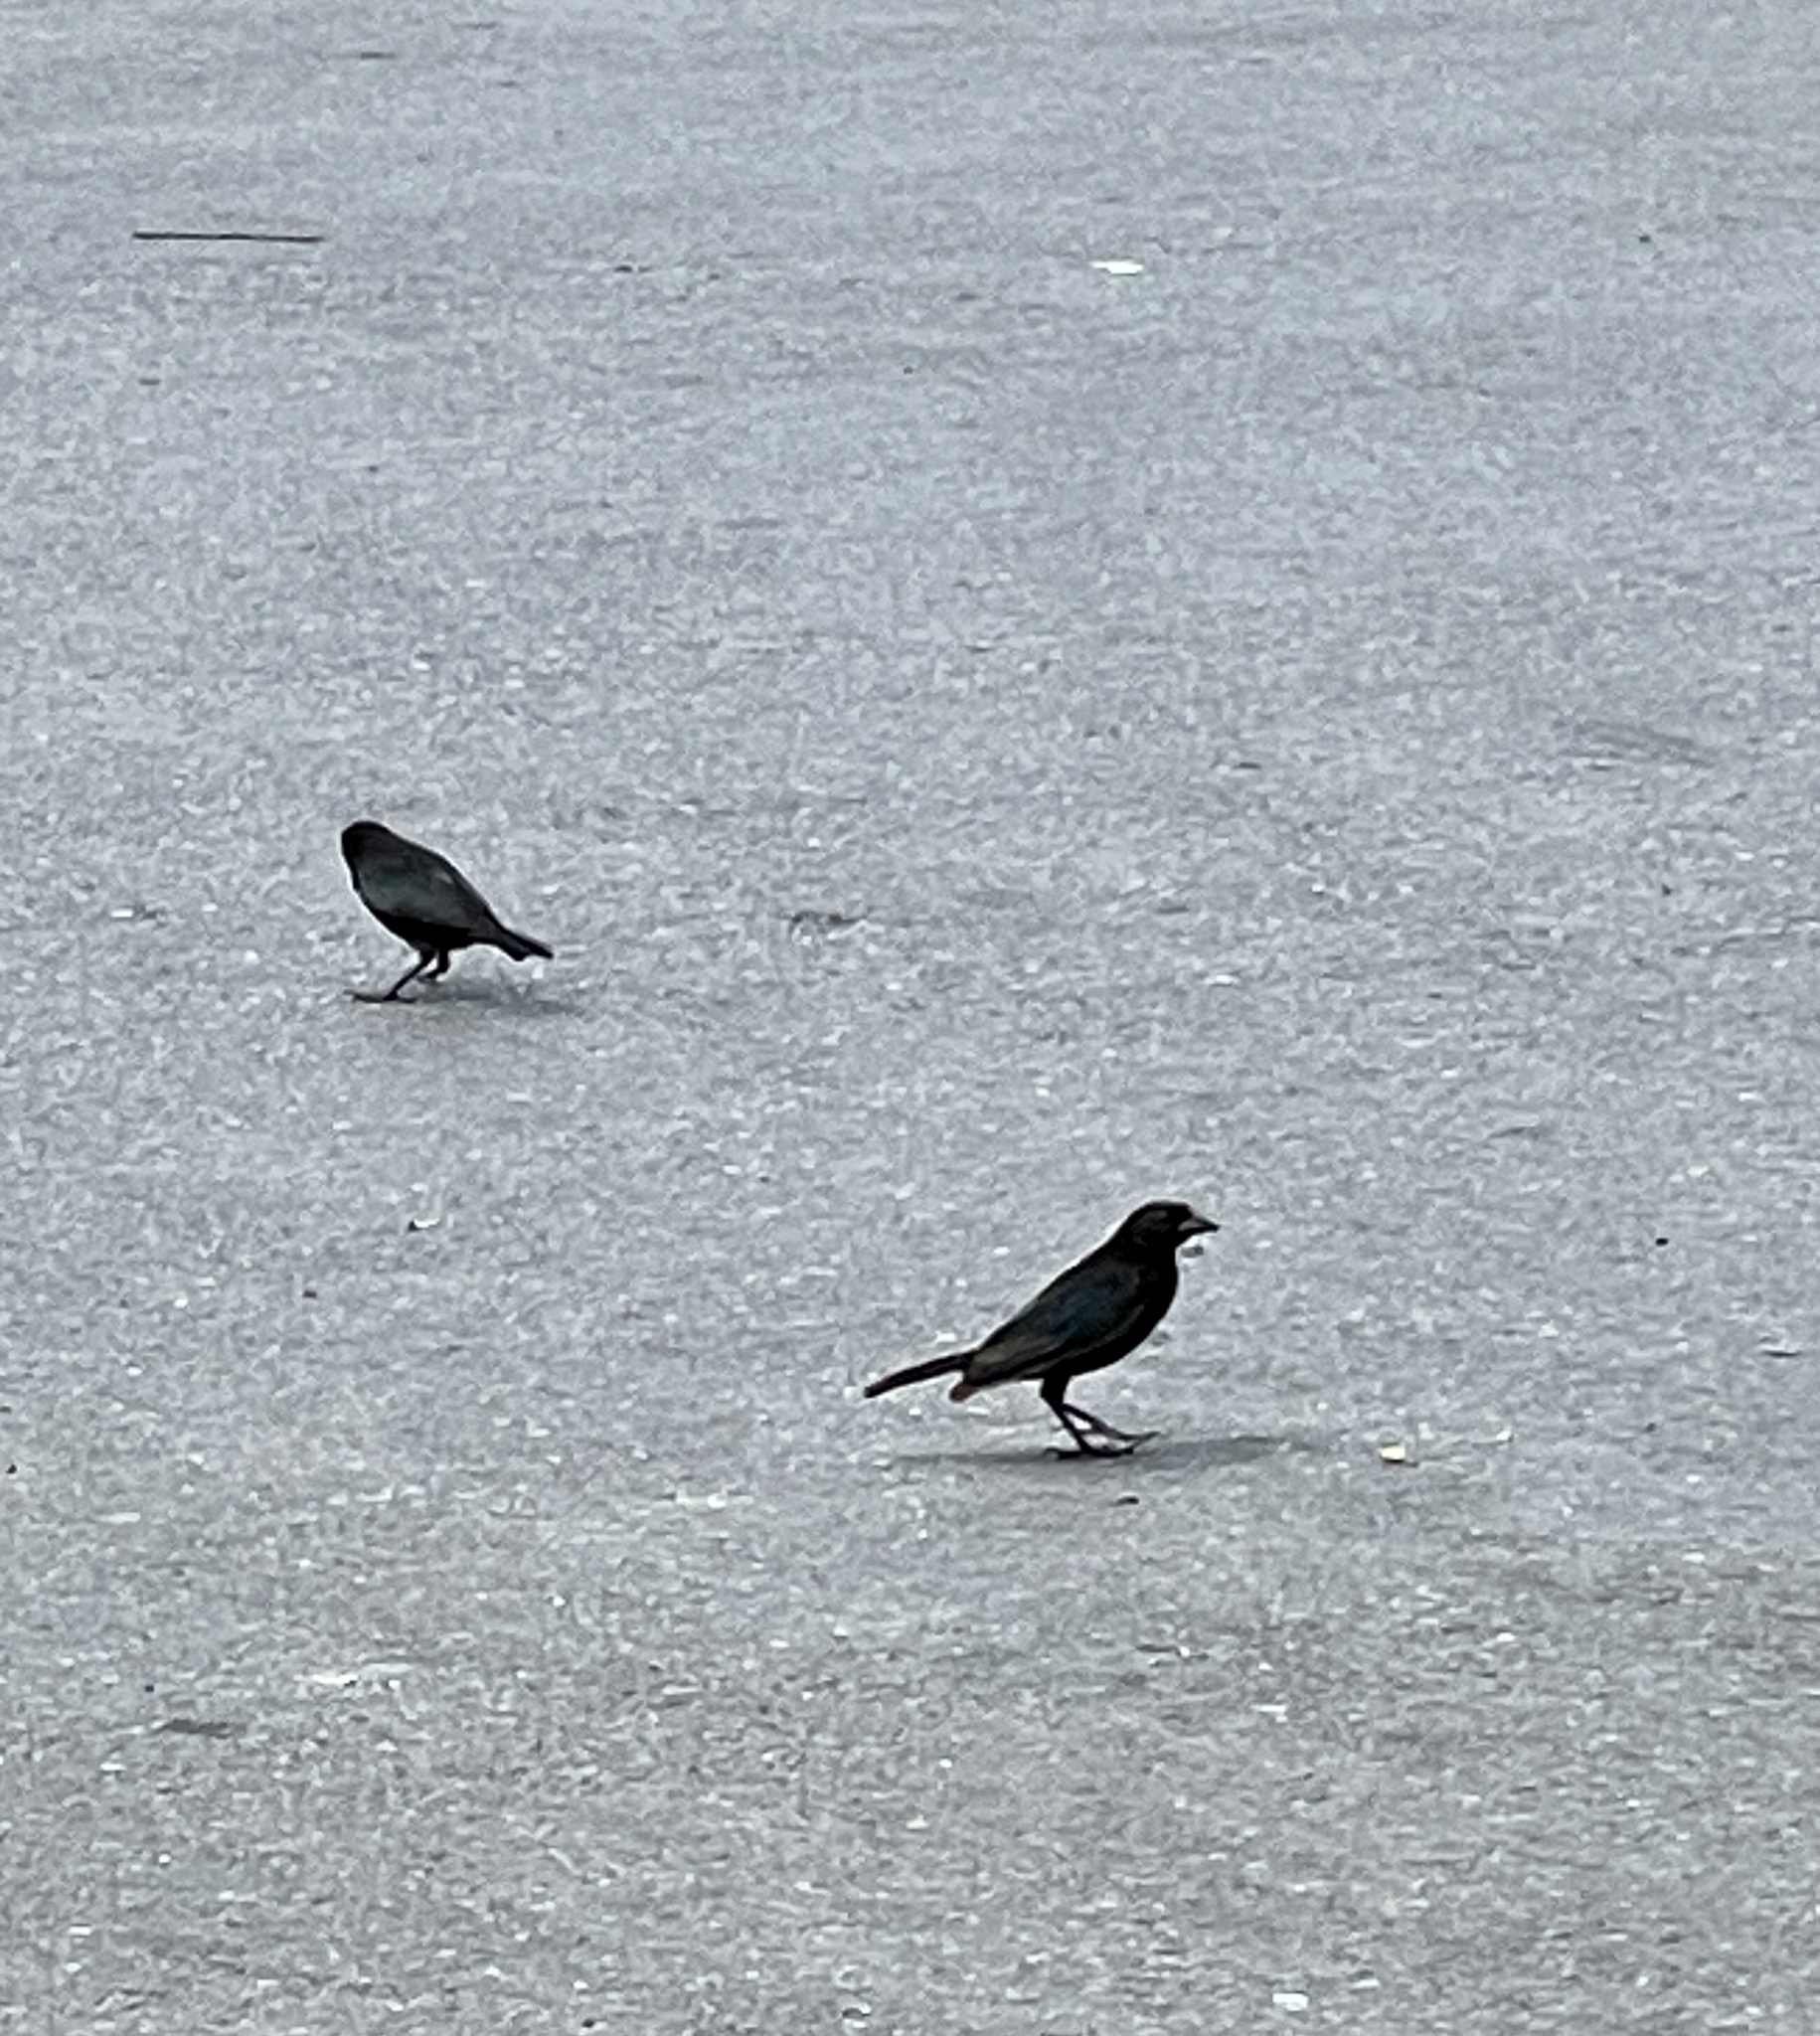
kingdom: Animalia
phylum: Chordata
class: Aves
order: Passeriformes
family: Icteridae
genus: Molothrus
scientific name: Molothrus aeneus
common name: Bronzed cowbird
